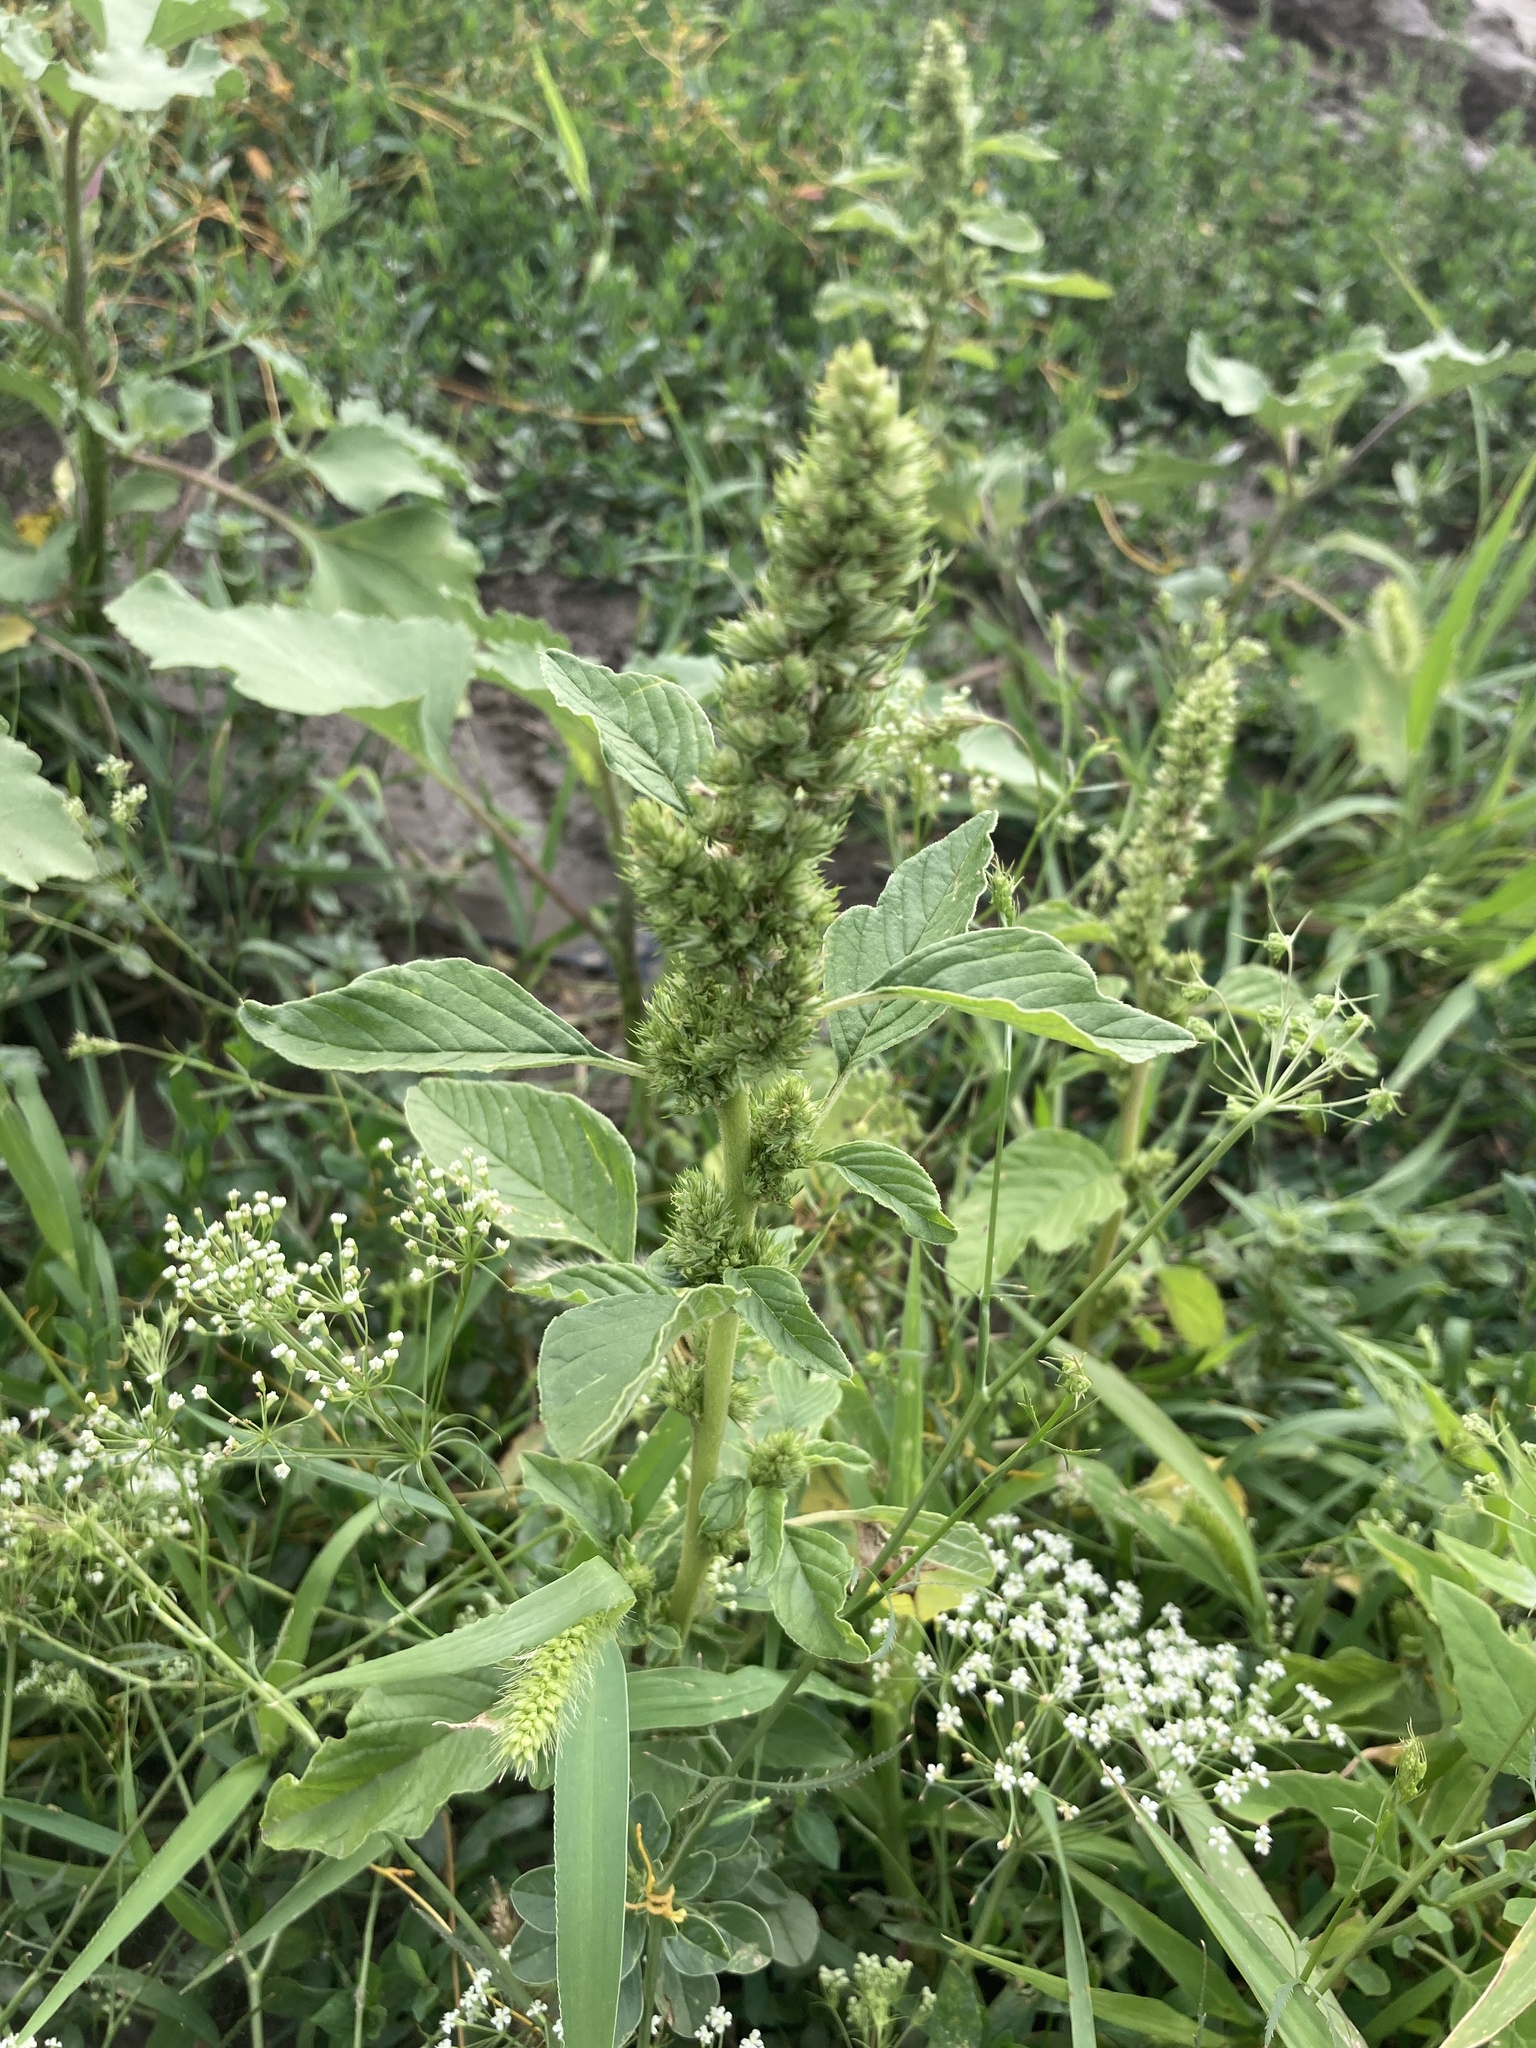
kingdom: Plantae
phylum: Tracheophyta
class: Magnoliopsida
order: Caryophyllales
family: Amaranthaceae
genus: Amaranthus
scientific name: Amaranthus retroflexus
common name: Redroot amaranth
